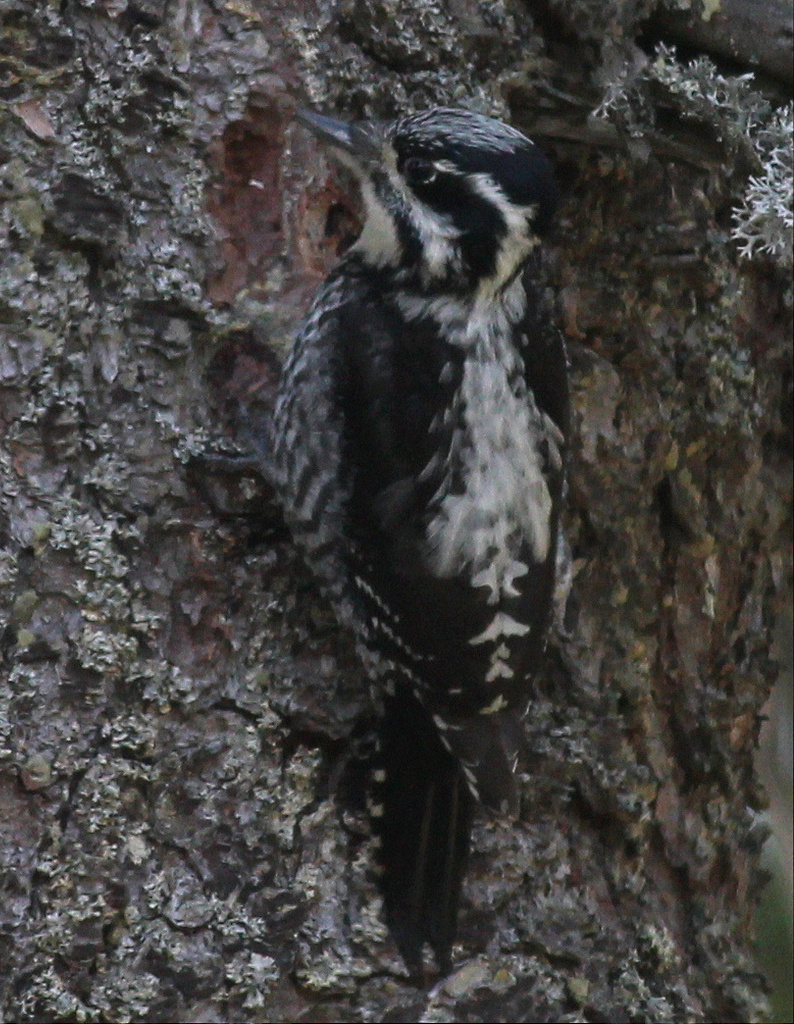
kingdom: Animalia
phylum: Chordata
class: Aves
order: Piciformes
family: Picidae
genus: Picoides
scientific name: Picoides tridactylus
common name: Eurasian three-toed woodpecker
